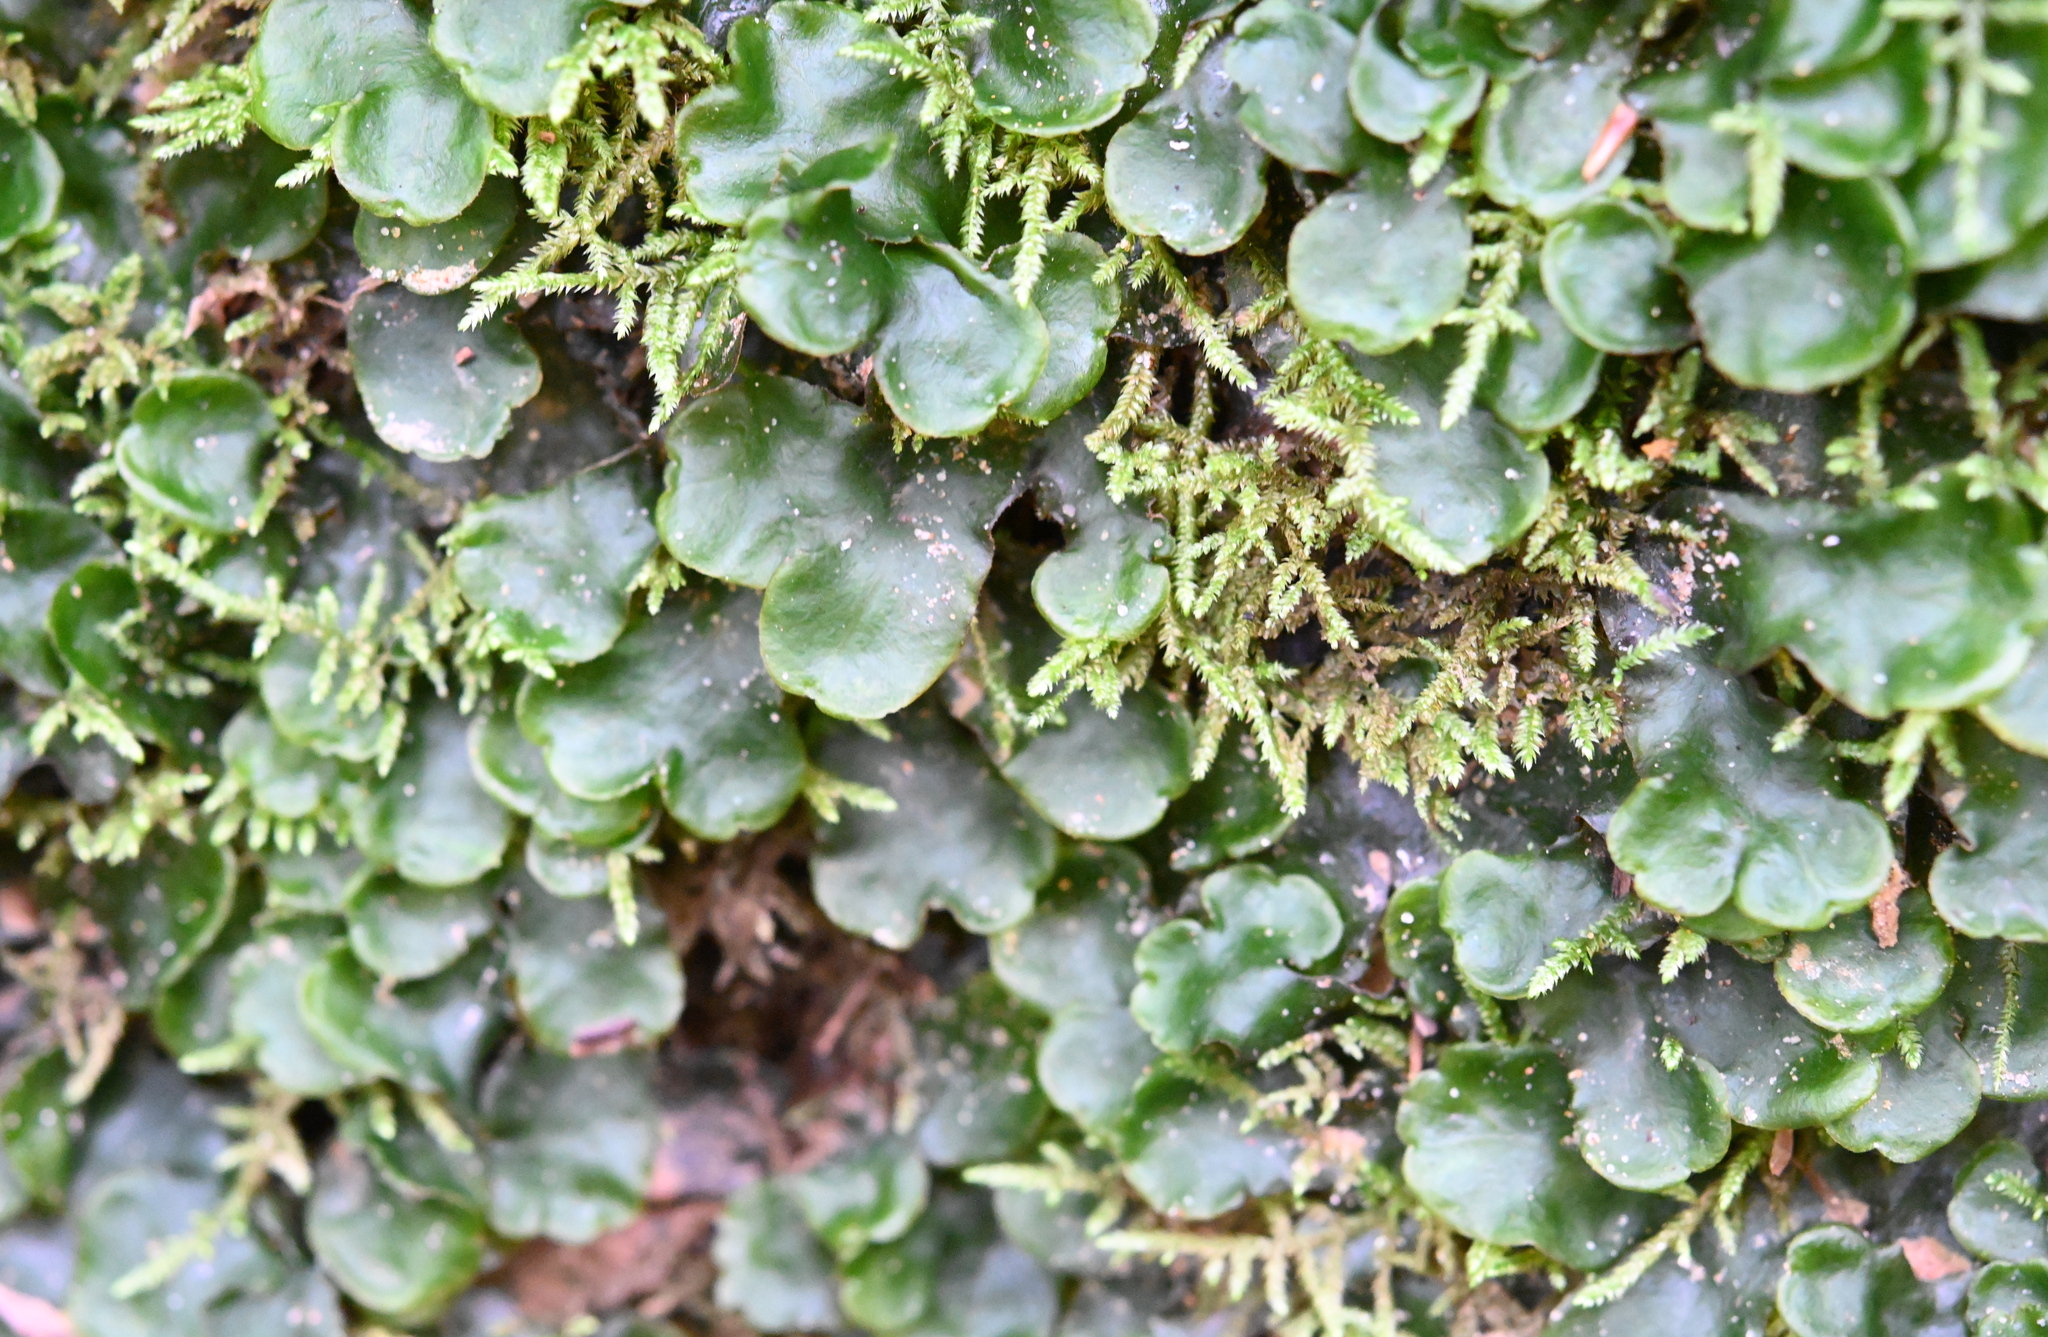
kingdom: Plantae
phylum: Marchantiophyta
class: Marchantiopsida
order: Marchantiales
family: Dumortieraceae
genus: Dumortiera
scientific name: Dumortiera hirsuta
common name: Dumortier's liverwort
